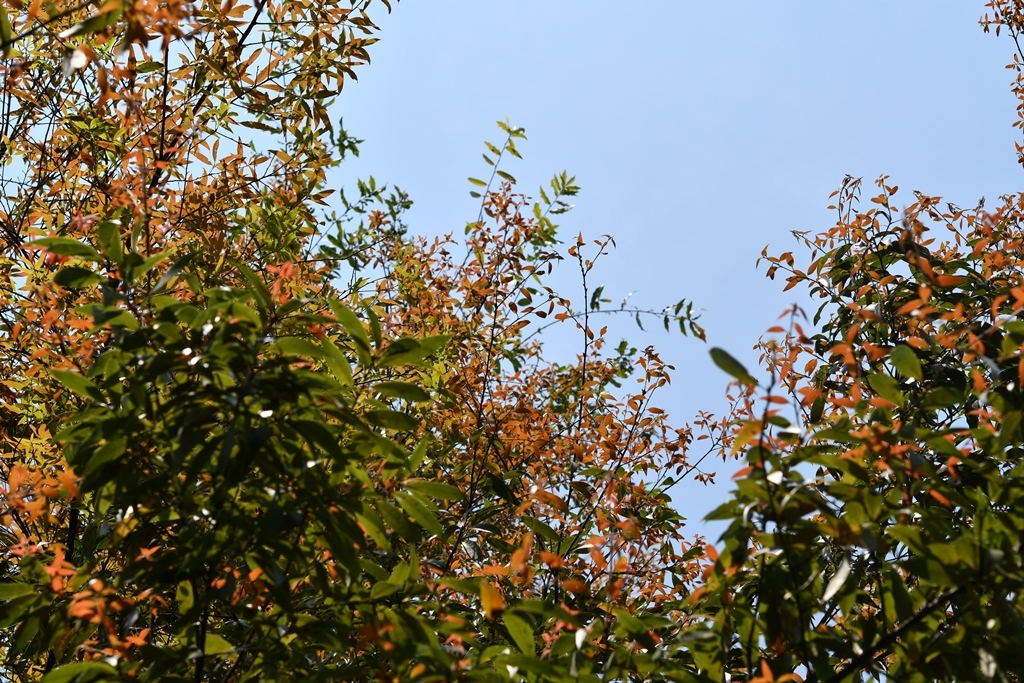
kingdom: Plantae
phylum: Tracheophyta
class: Magnoliopsida
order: Fagales
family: Fagaceae
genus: Quercus
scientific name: Quercus acatenangensis
